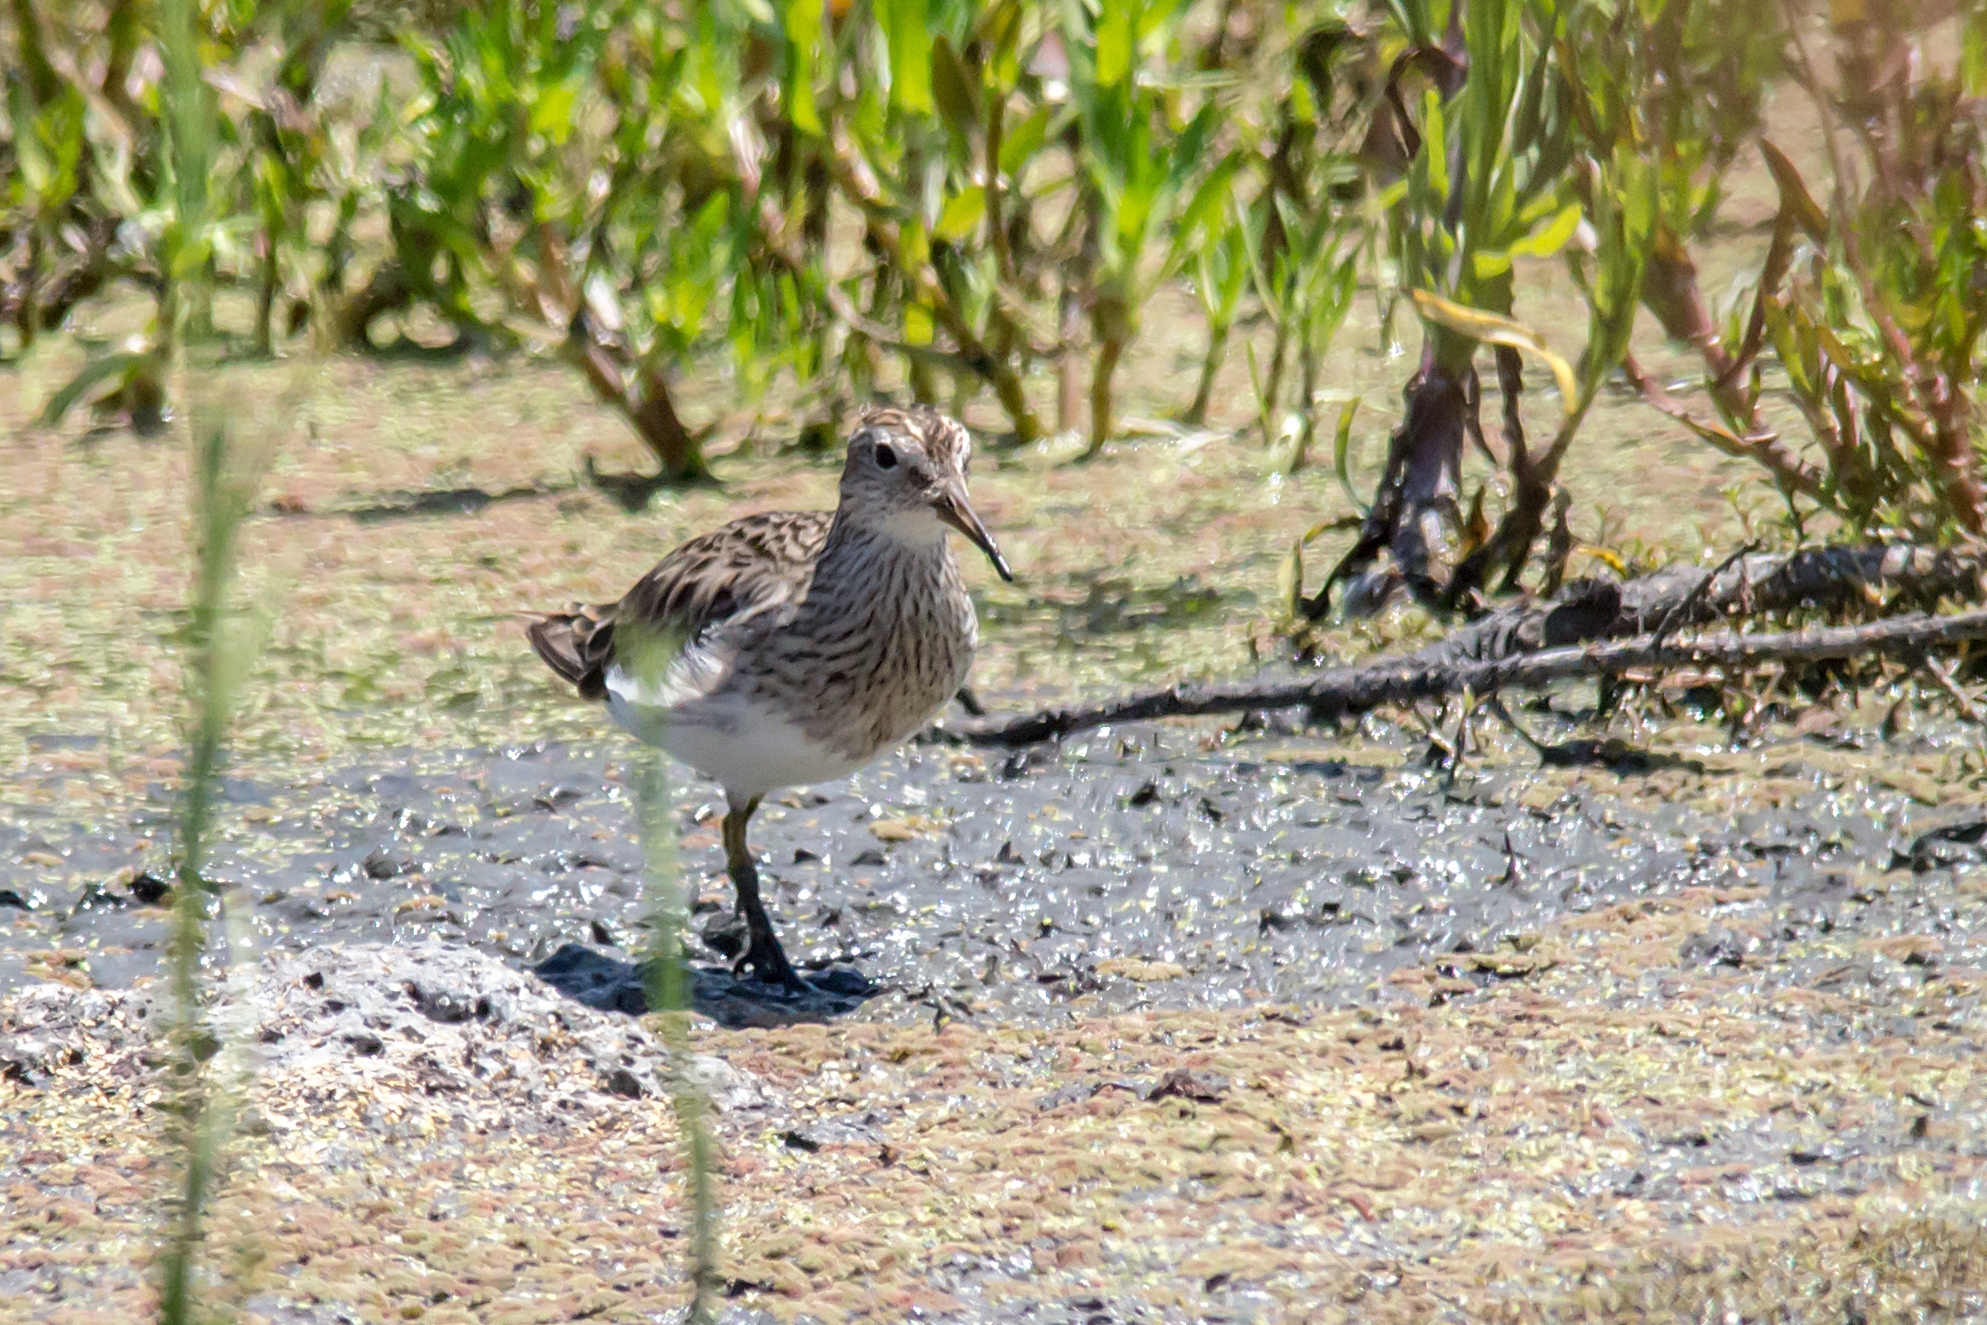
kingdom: Animalia
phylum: Chordata
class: Aves
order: Charadriiformes
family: Scolopacidae
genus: Calidris
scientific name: Calidris melanotos
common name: Pectoral sandpiper
